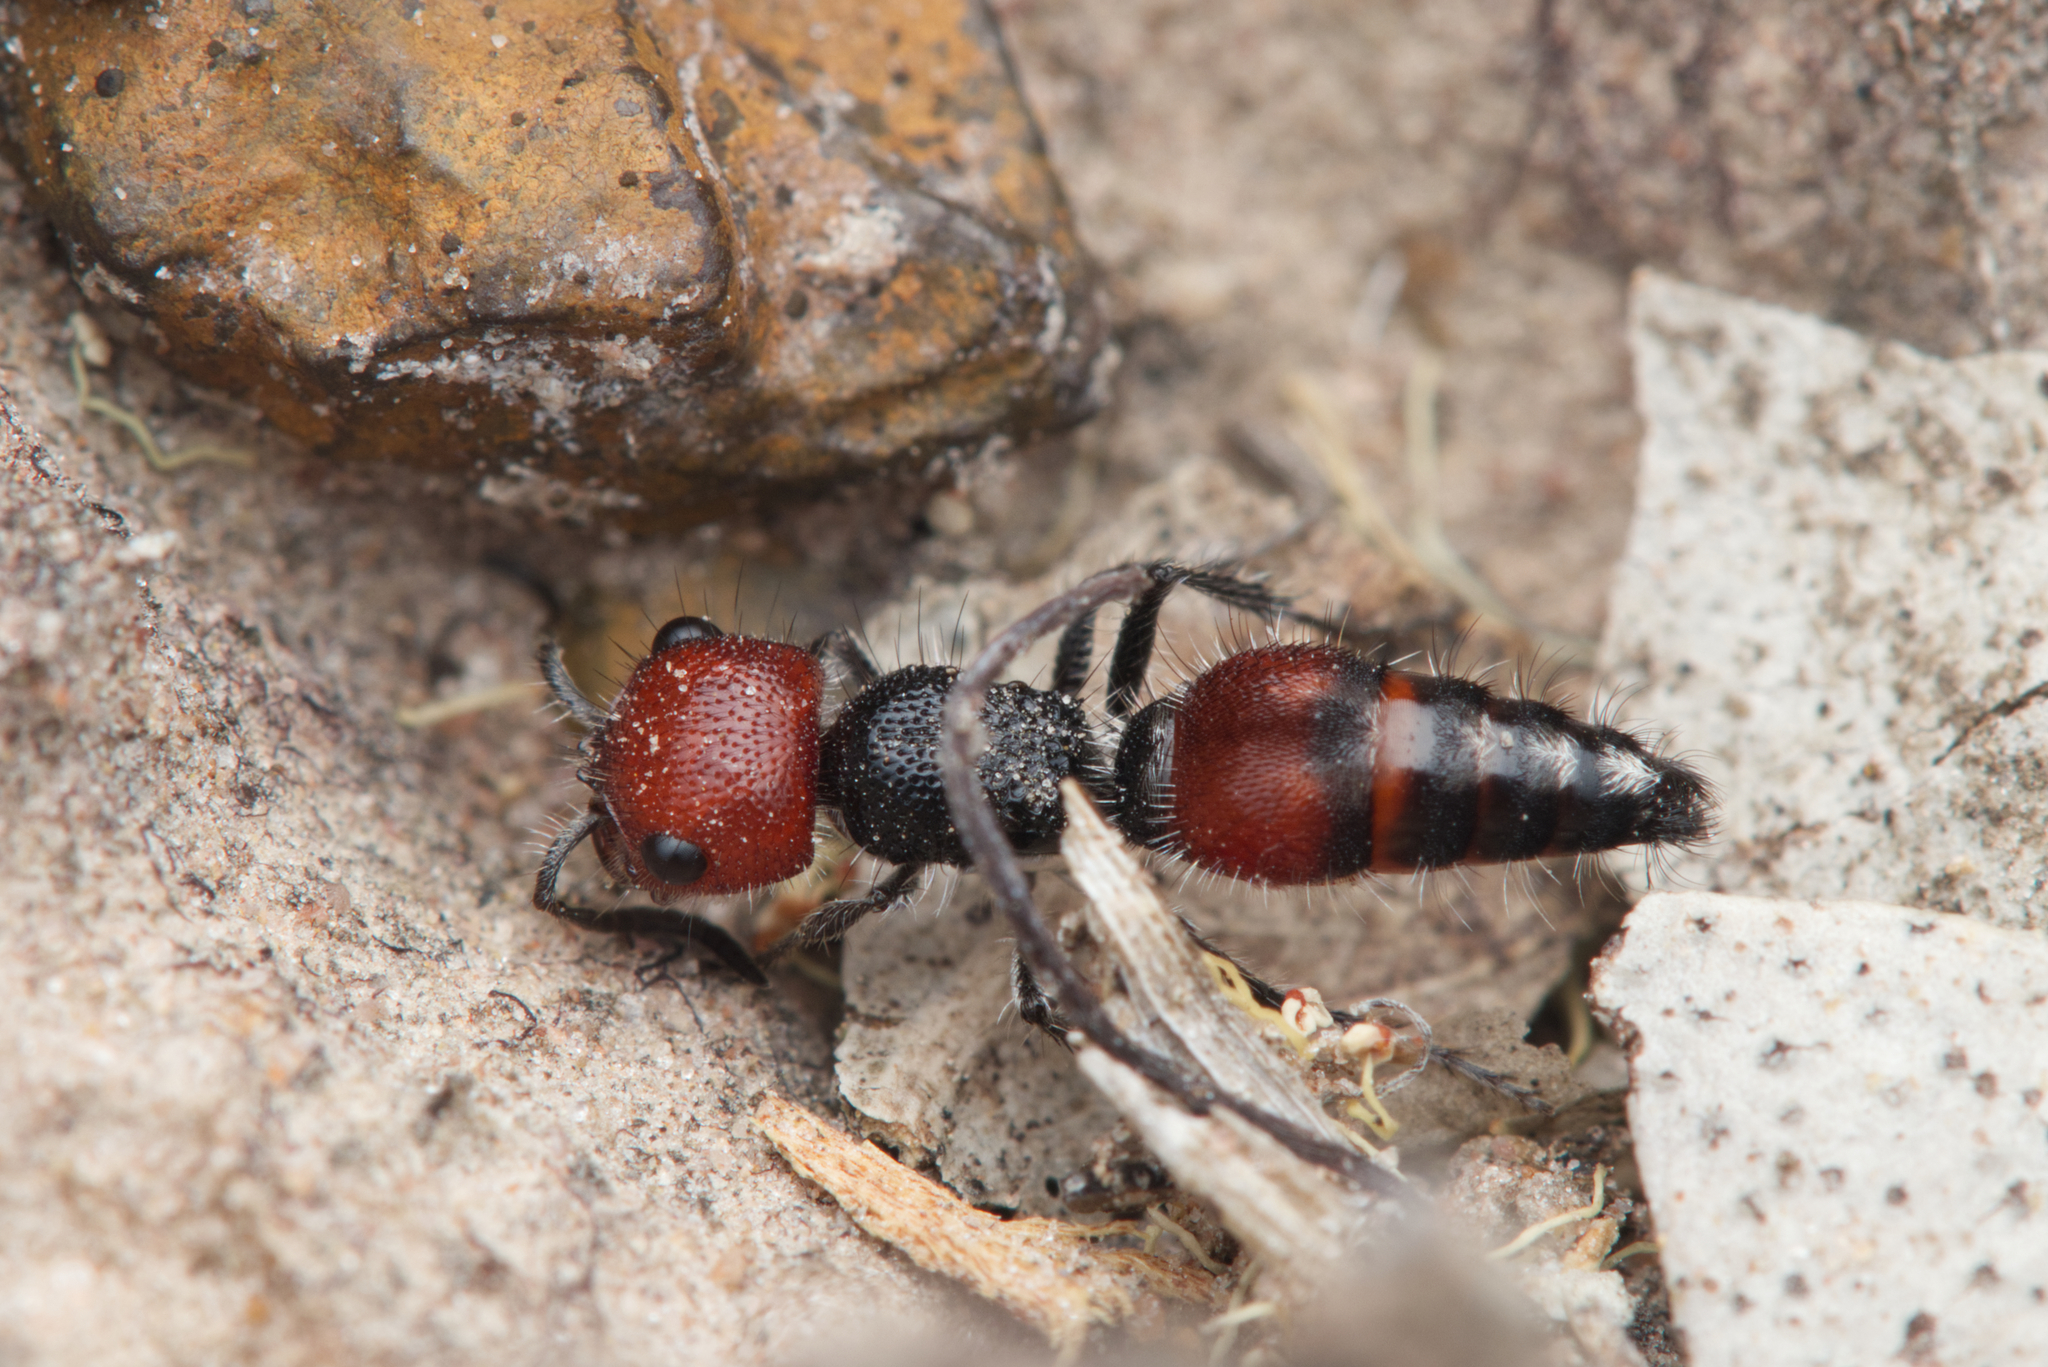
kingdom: Animalia
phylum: Arthropoda
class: Insecta
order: Hymenoptera
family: Mutillidae
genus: Ephutomorpha
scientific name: Ephutomorpha
